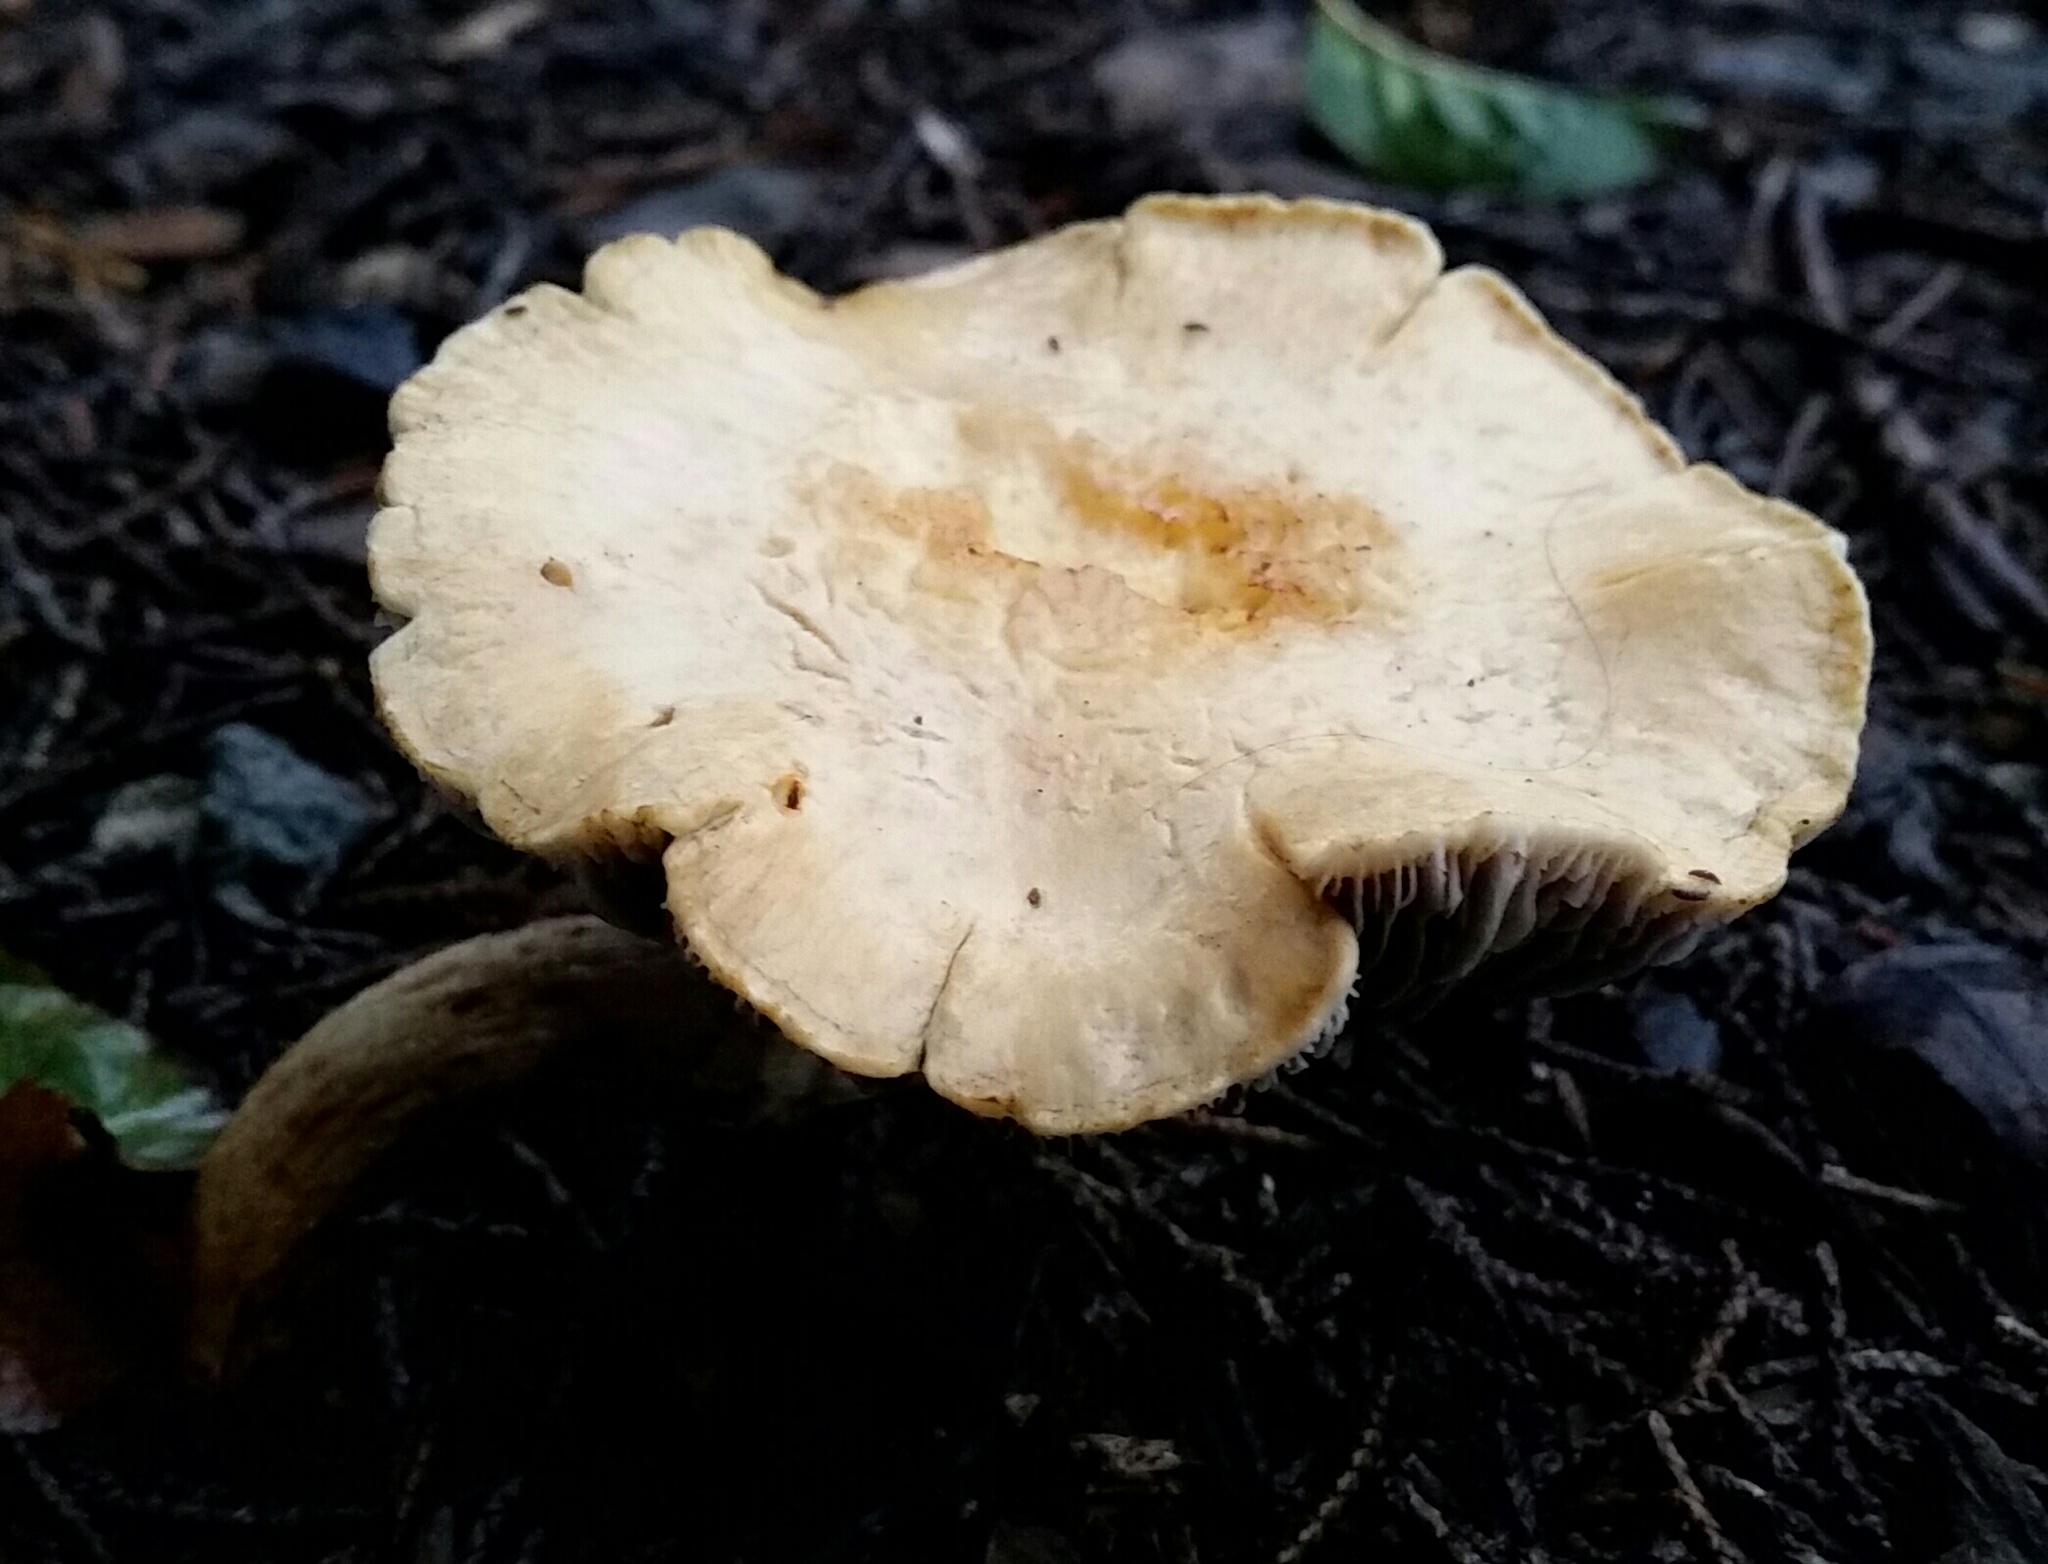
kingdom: Fungi
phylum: Basidiomycota
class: Agaricomycetes
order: Agaricales
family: Strophariaceae
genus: Leratiomyces
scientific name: Leratiomyces percevalii
